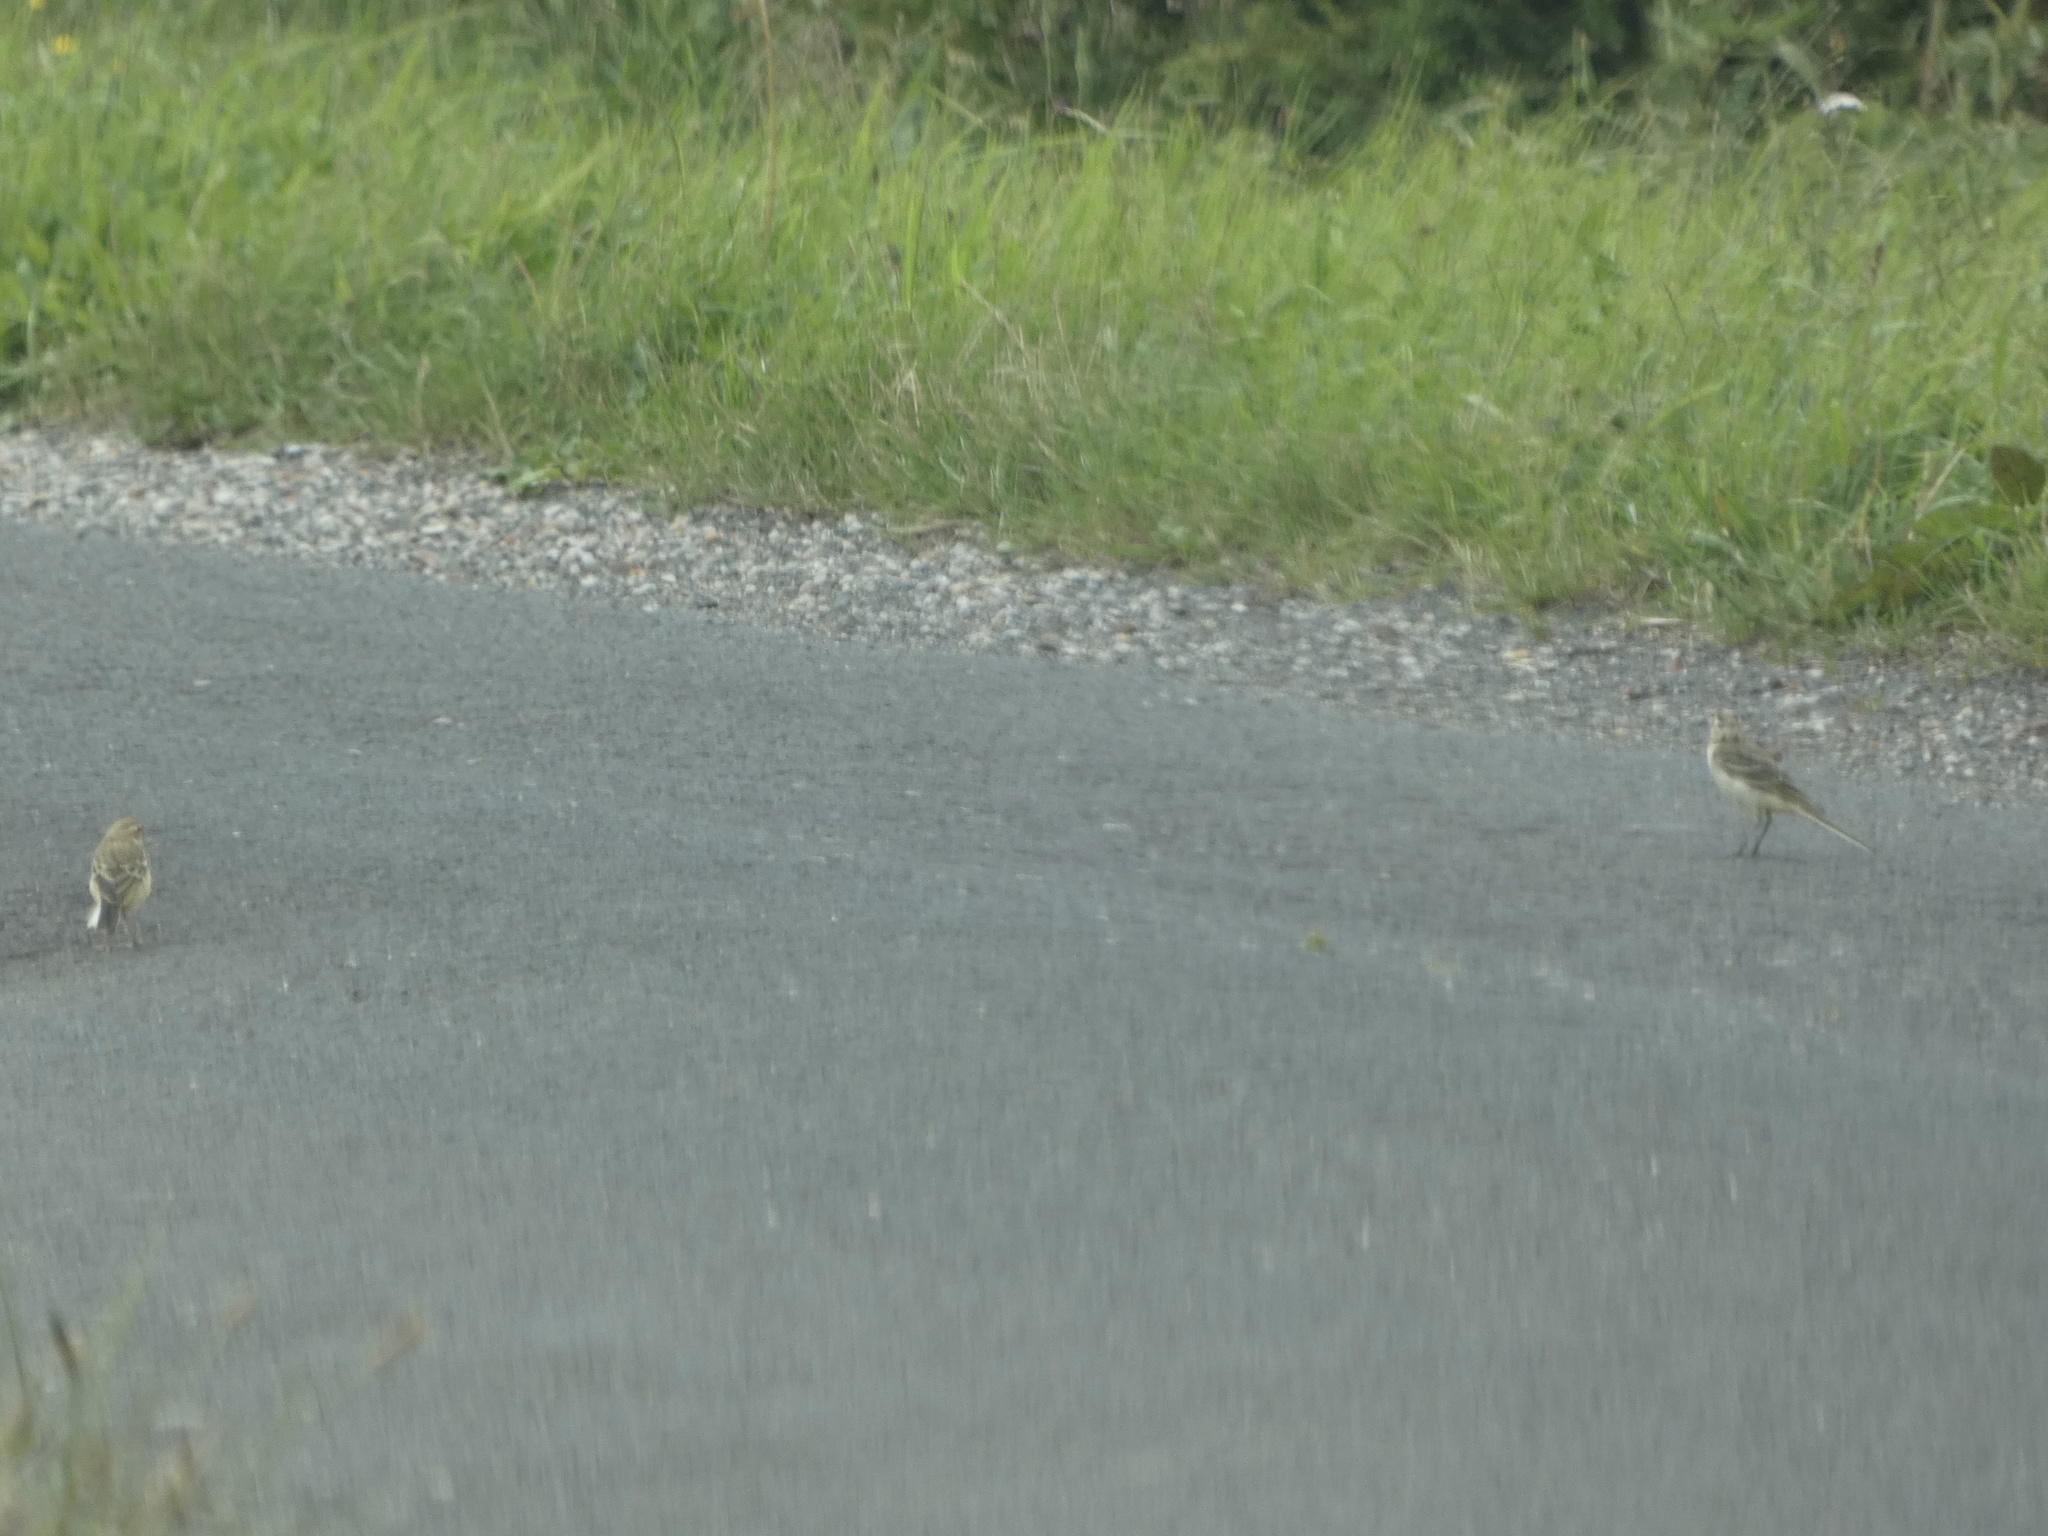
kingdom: Animalia
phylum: Chordata
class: Aves
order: Passeriformes
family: Motacillidae
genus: Motacilla
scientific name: Motacilla flava
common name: Western yellow wagtail
